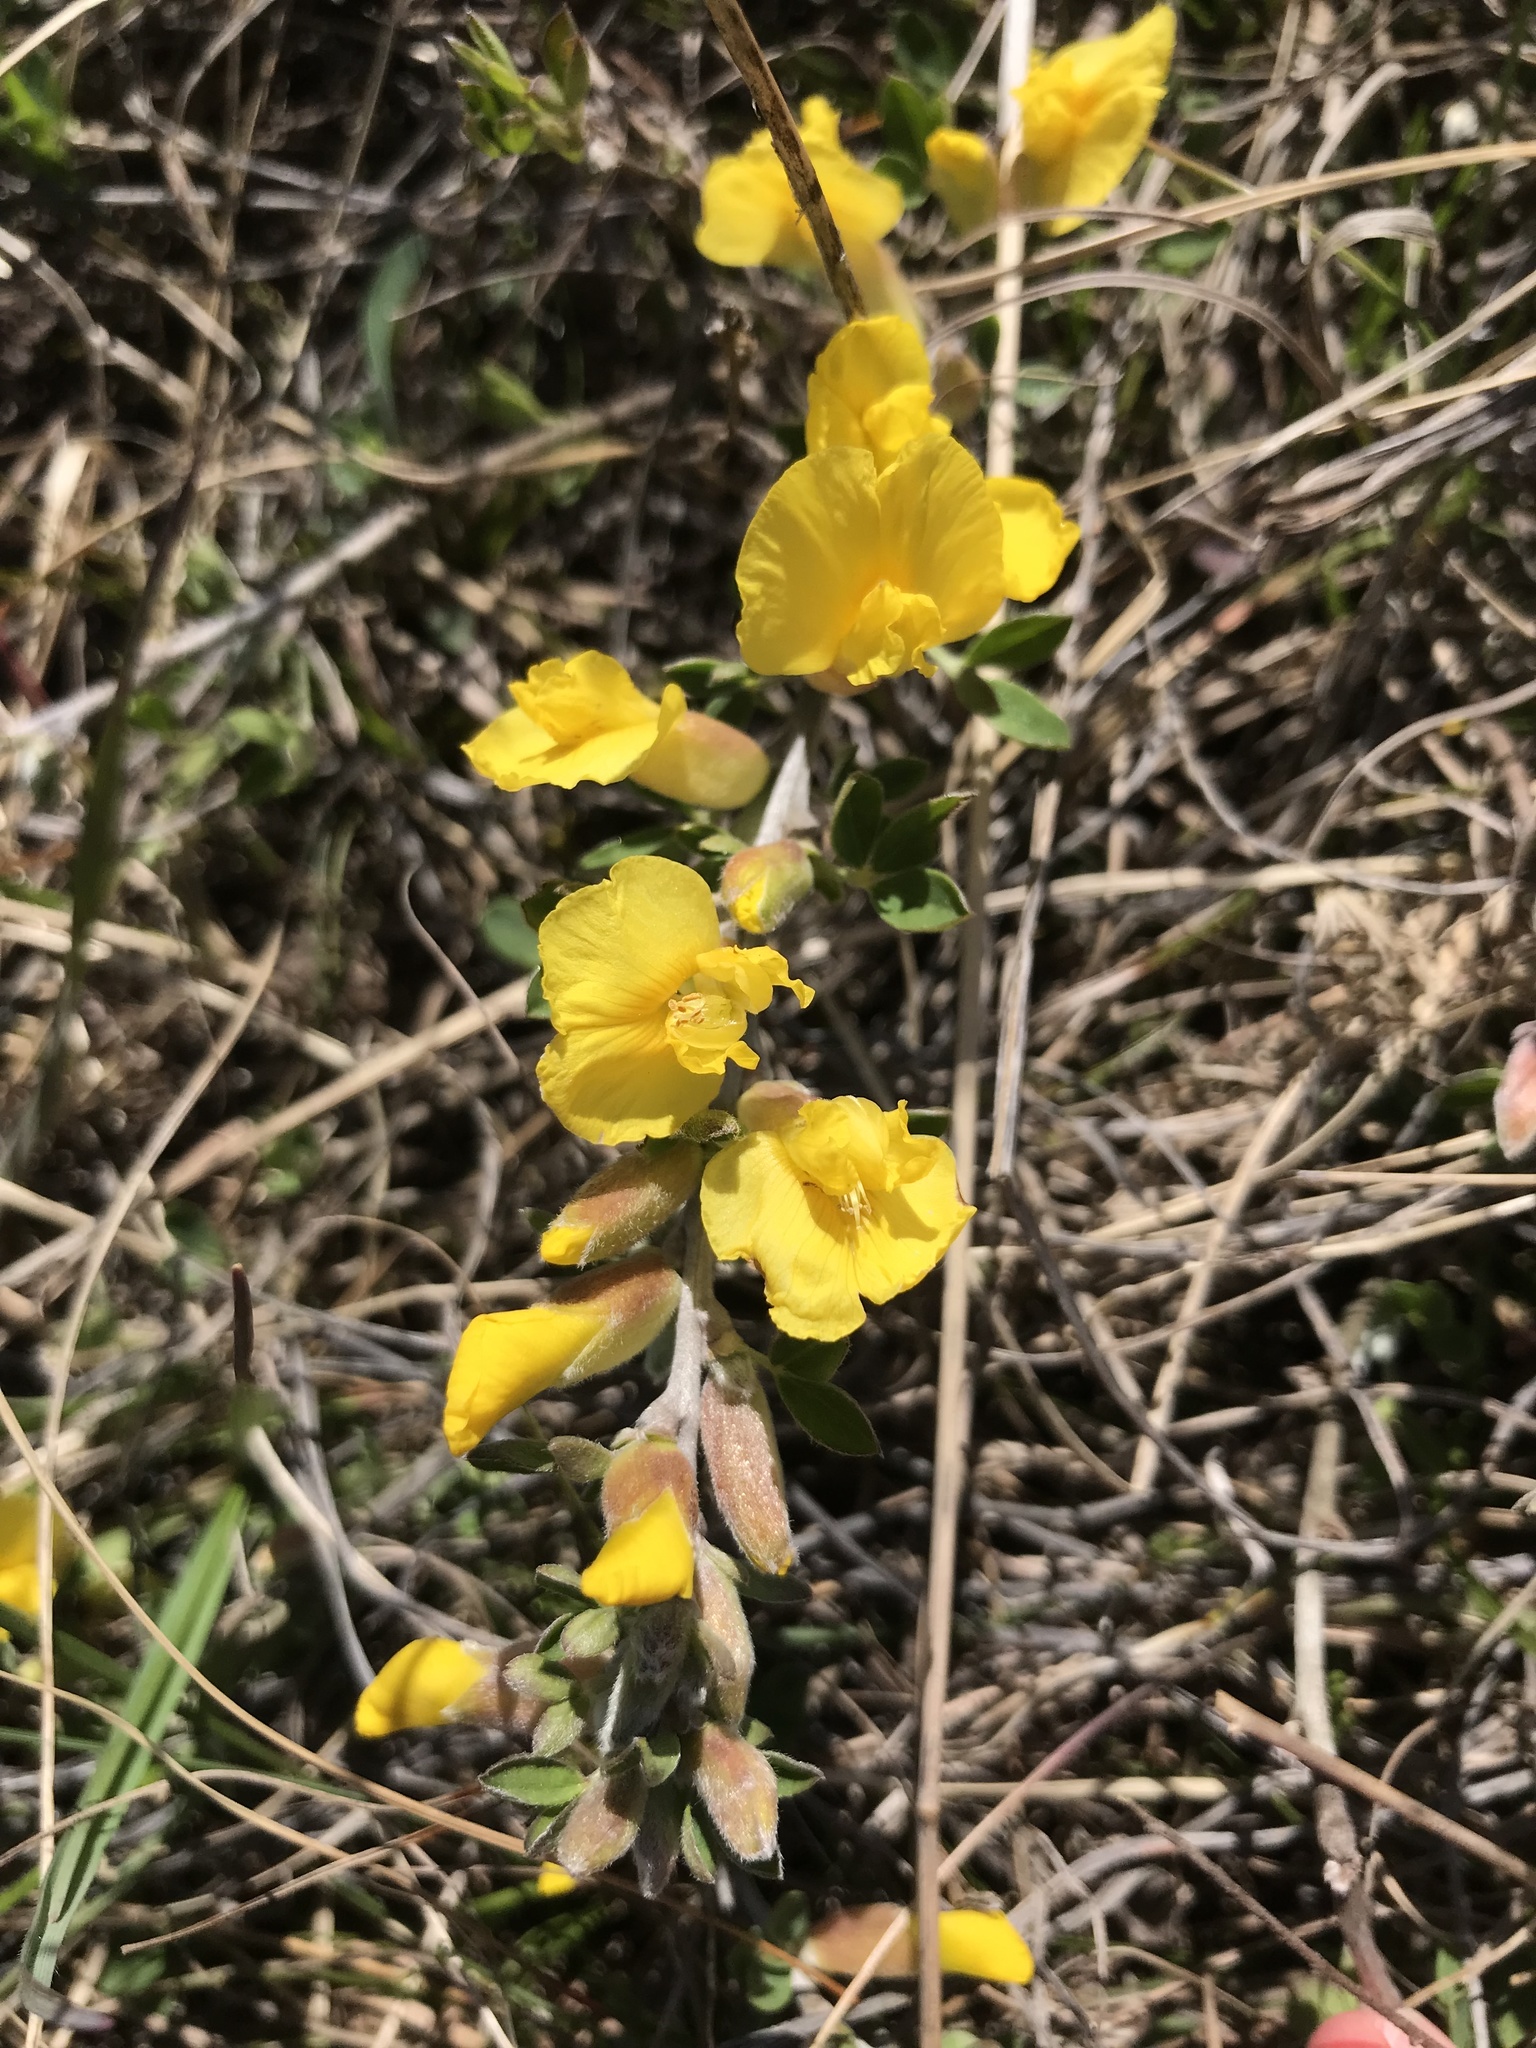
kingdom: Plantae
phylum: Tracheophyta
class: Magnoliopsida
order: Fabales
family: Fabaceae
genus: Chamaecytisus
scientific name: Chamaecytisus ratisbonensis
